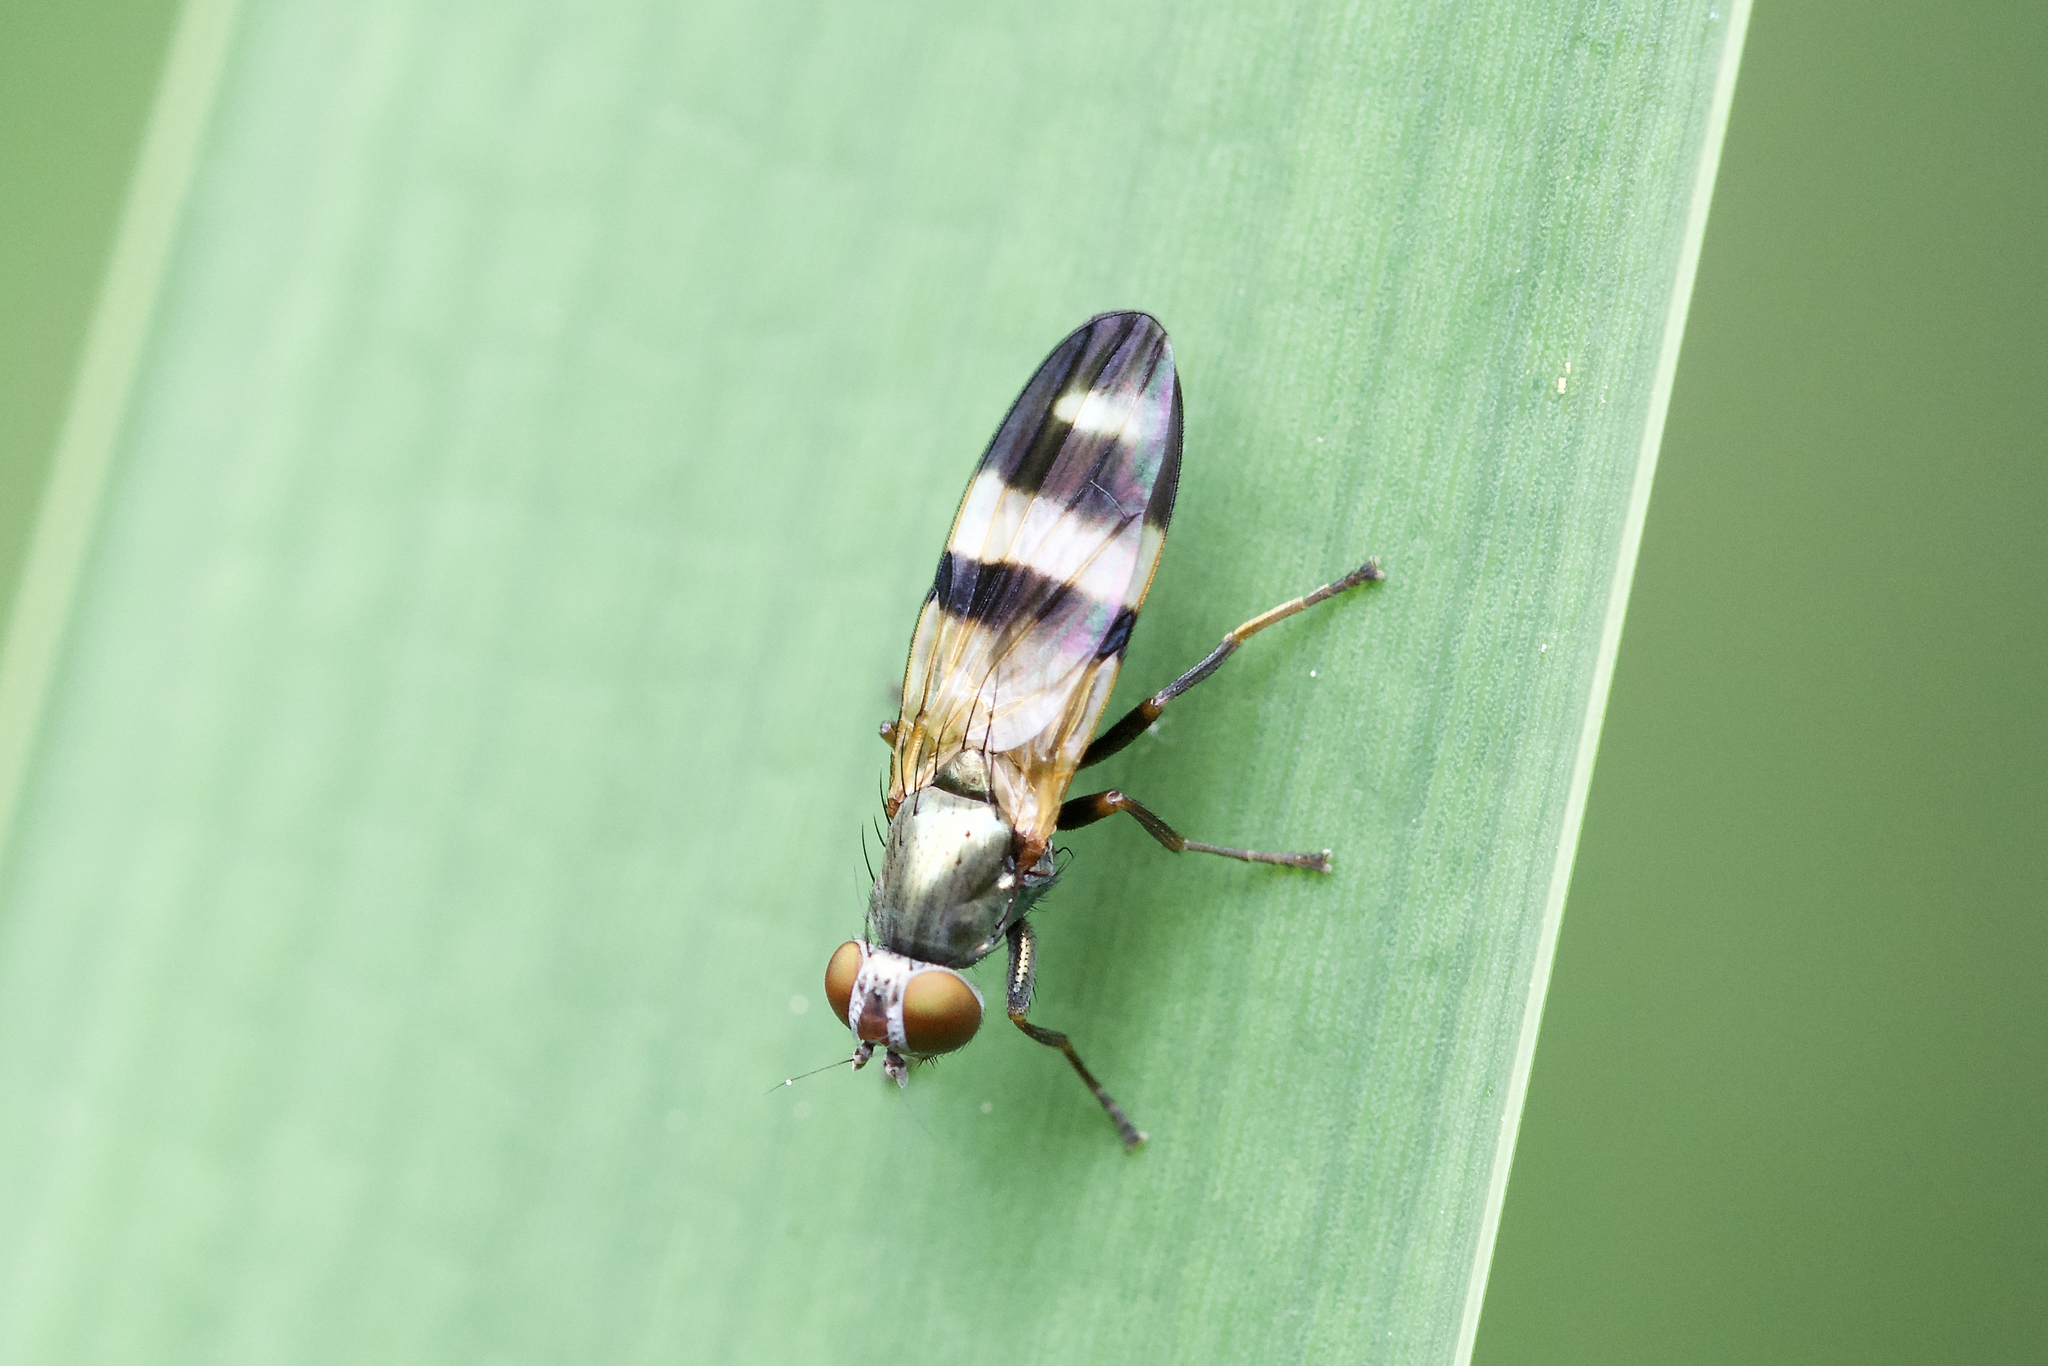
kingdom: Animalia
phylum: Arthropoda
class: Insecta
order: Diptera
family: Ulidiidae
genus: Chaetopsis
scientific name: Chaetopsis massyla
